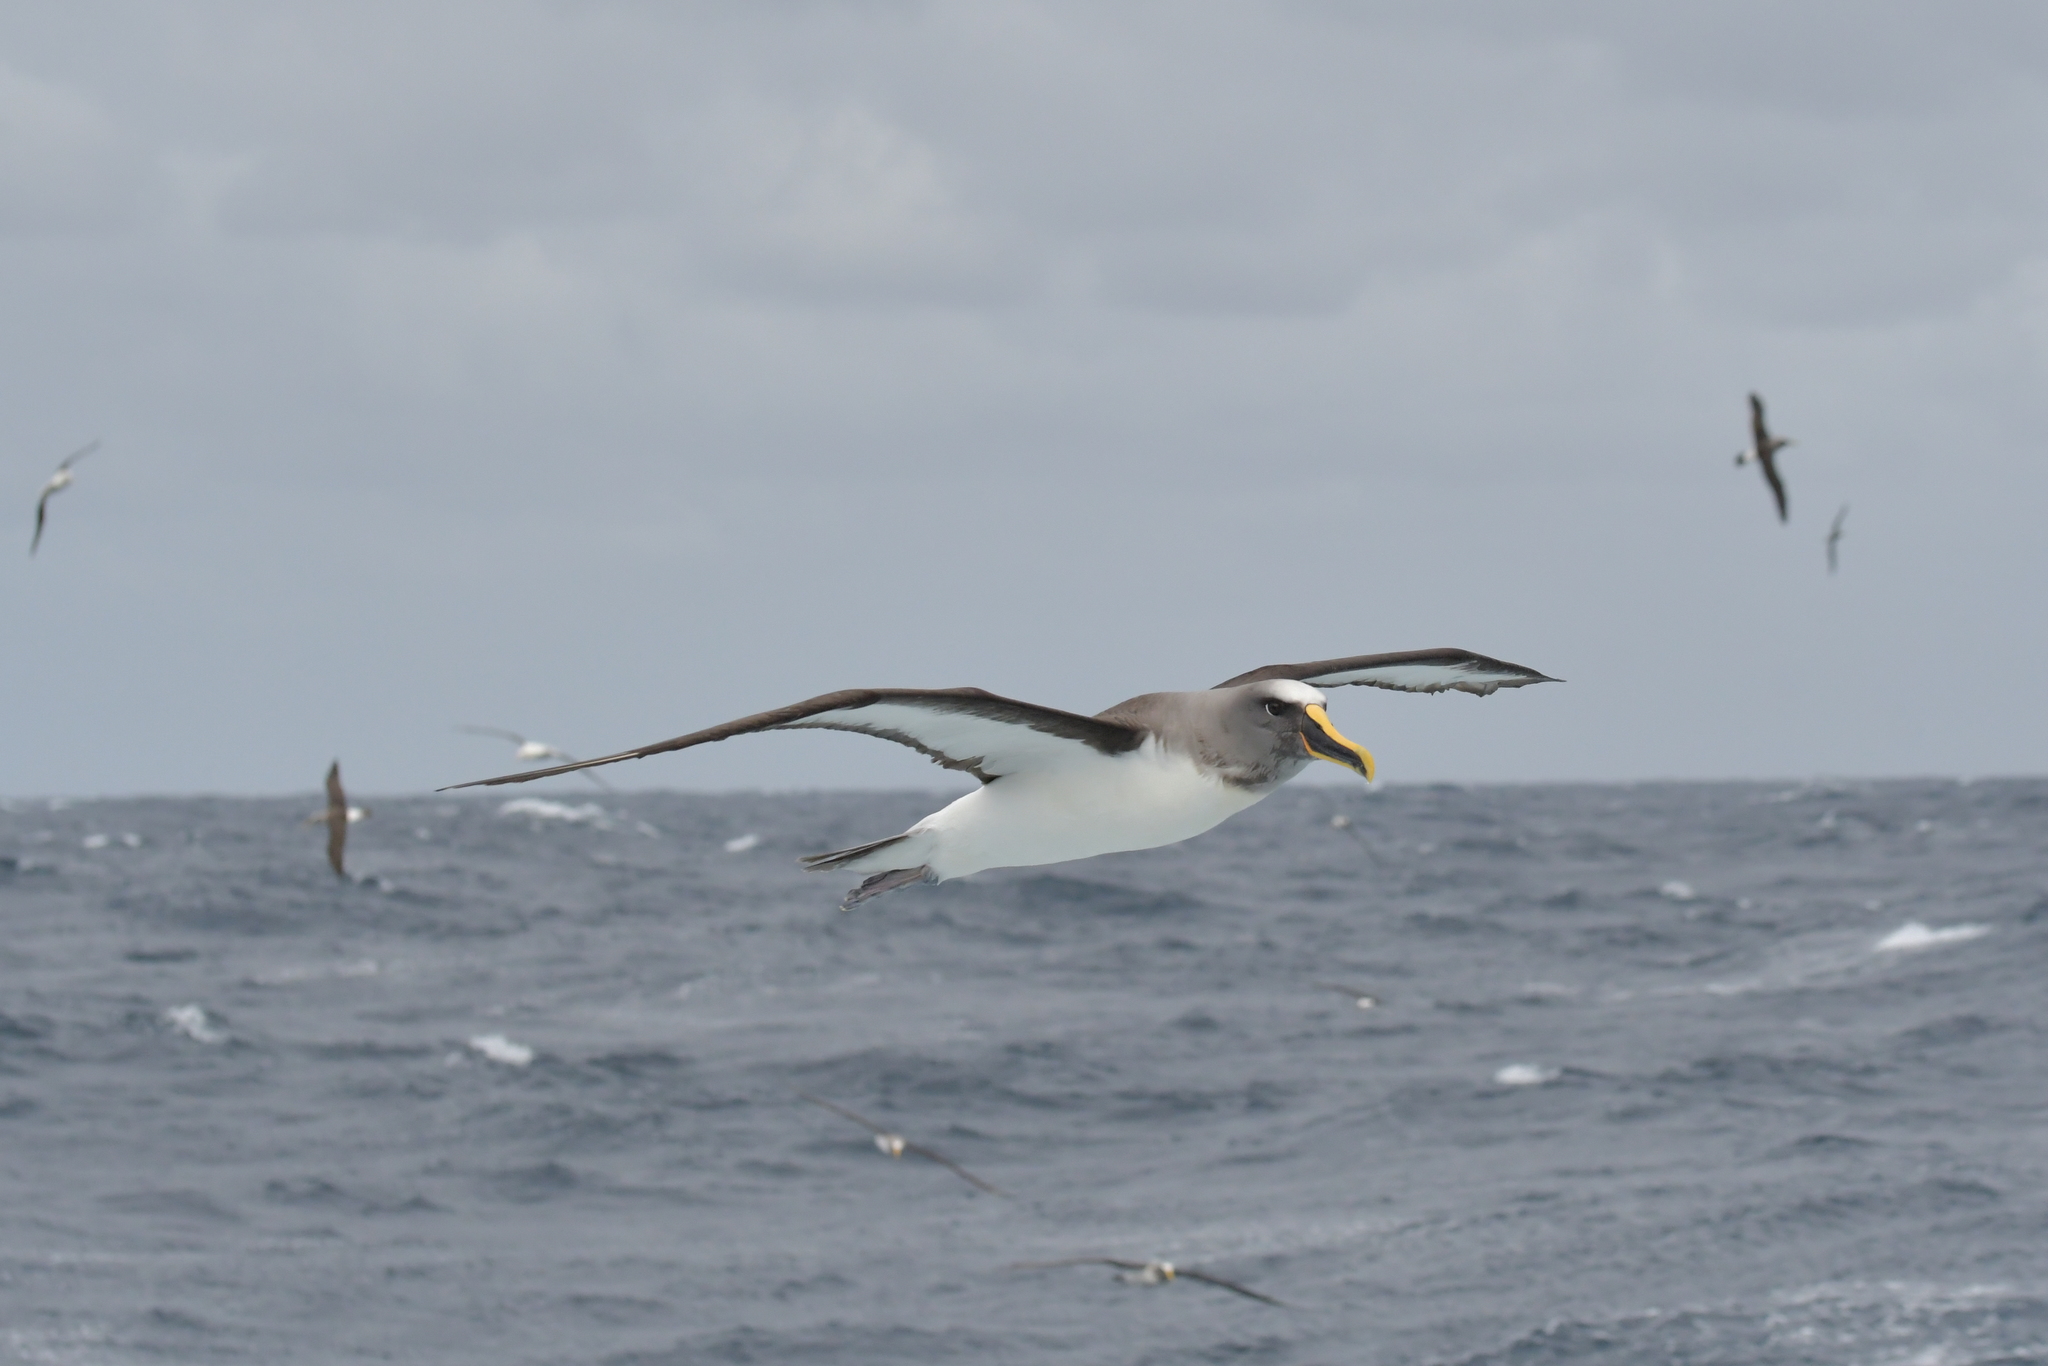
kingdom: Animalia
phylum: Chordata
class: Aves
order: Procellariiformes
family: Diomedeidae
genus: Thalassarche
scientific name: Thalassarche bulleri
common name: Buller's albatross
